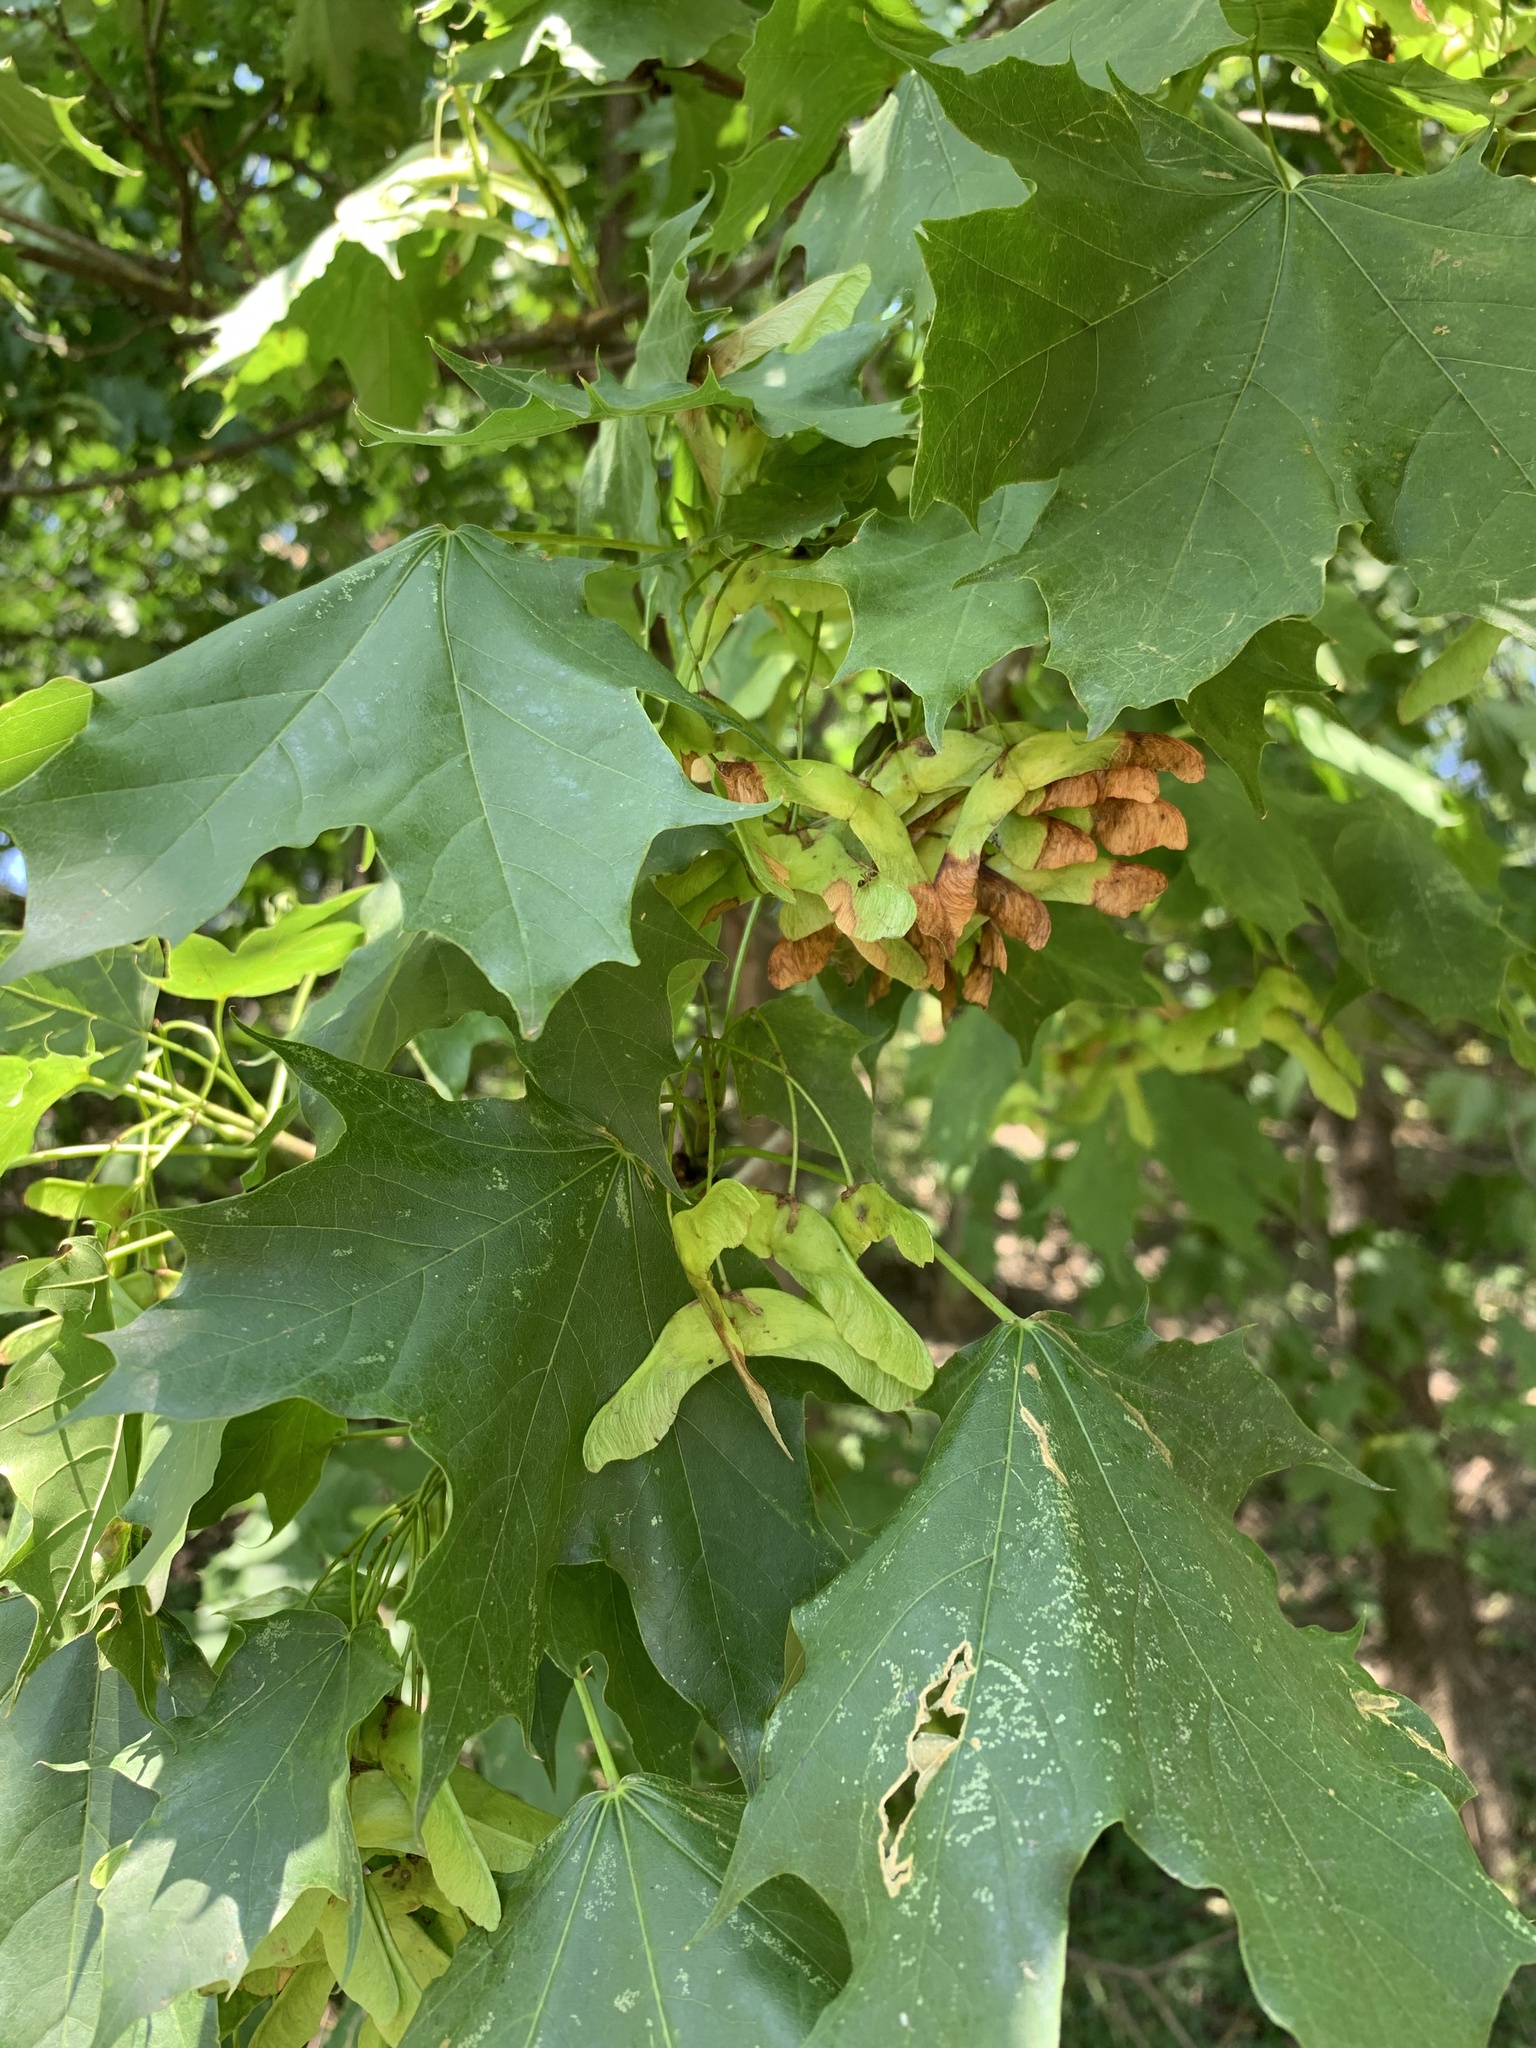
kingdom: Plantae
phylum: Tracheophyta
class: Magnoliopsida
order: Sapindales
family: Sapindaceae
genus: Acer
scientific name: Acer platanoides
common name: Norway maple
